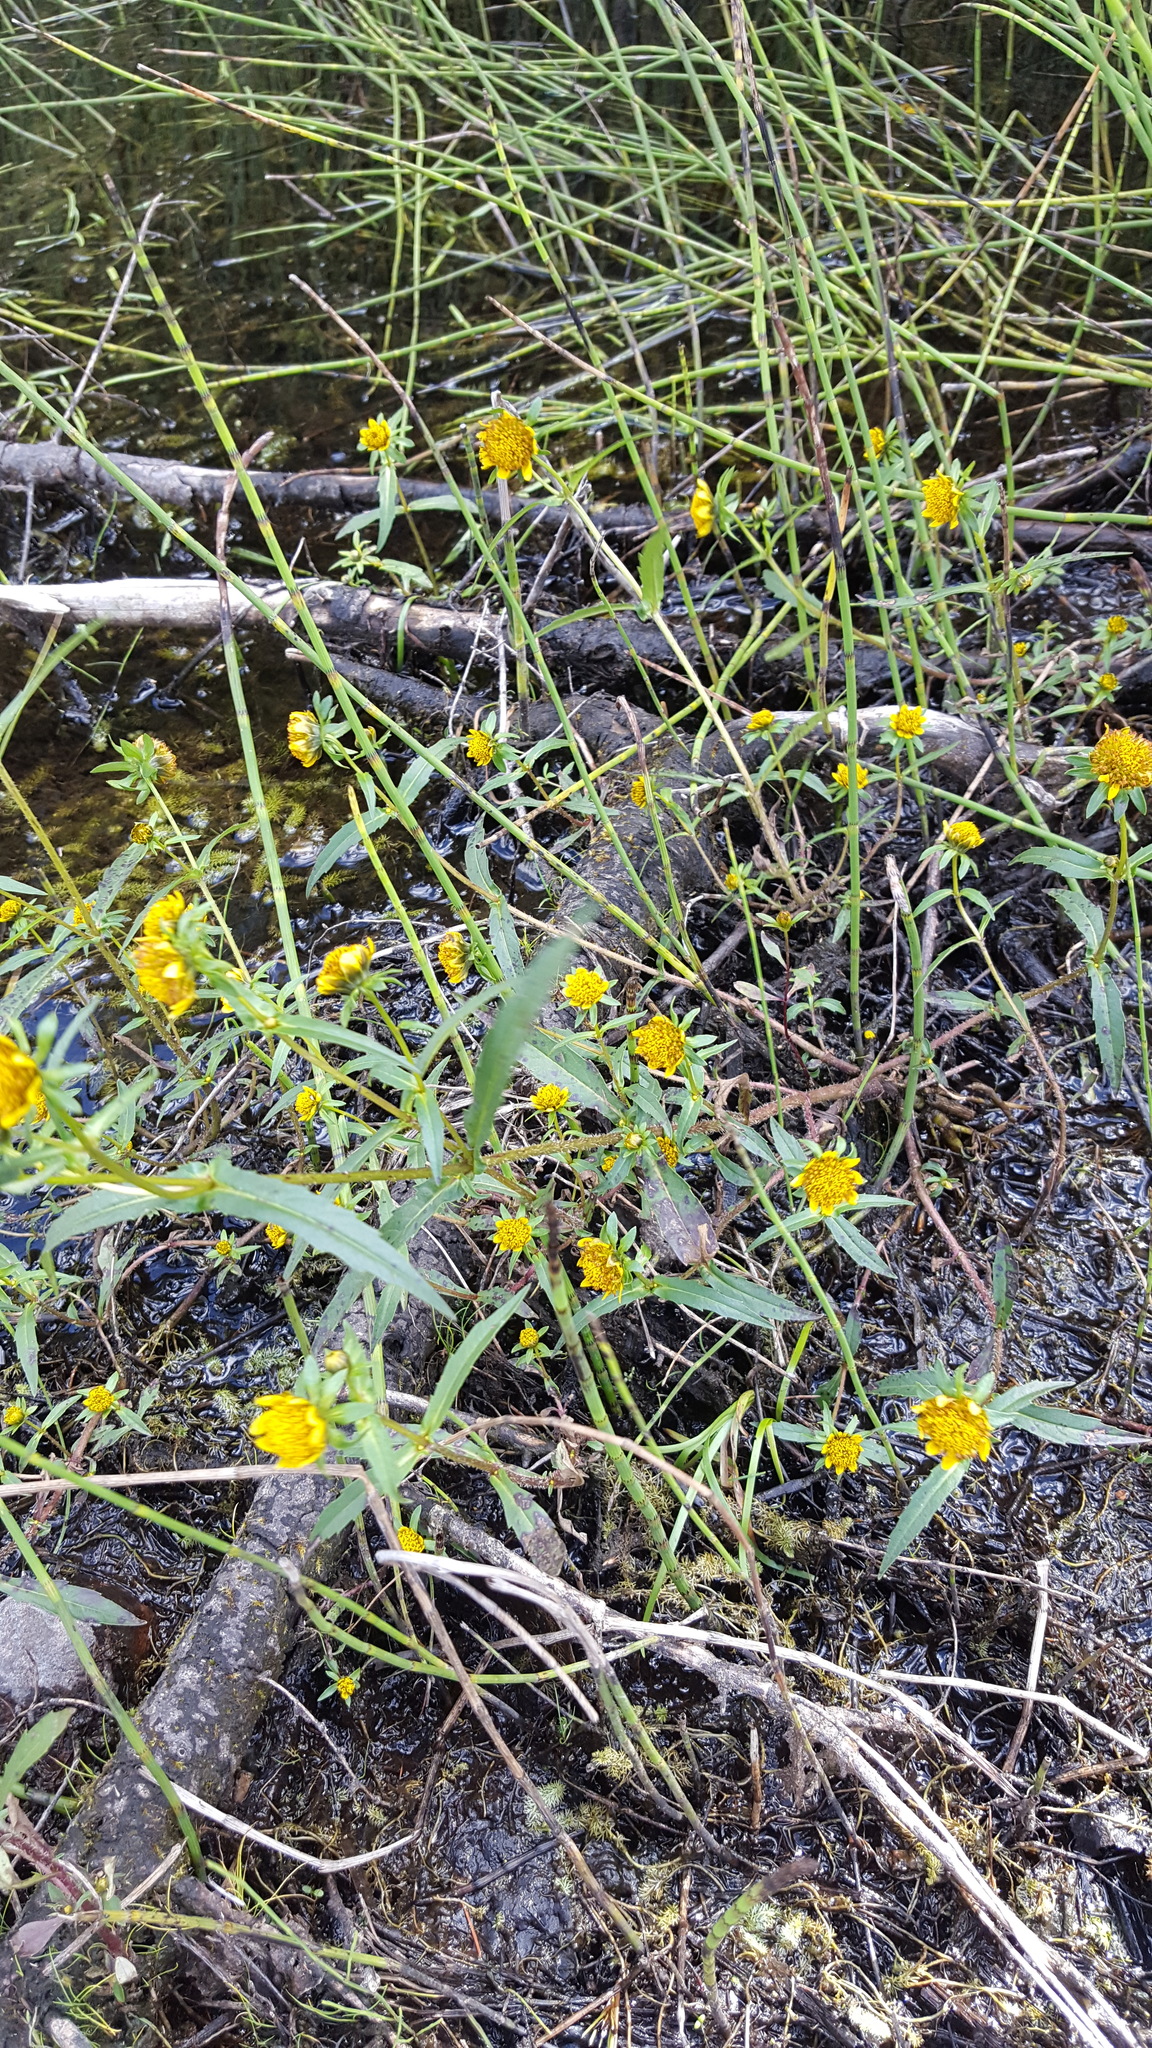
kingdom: Plantae
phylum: Tracheophyta
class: Magnoliopsida
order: Asterales
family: Asteraceae
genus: Bidens
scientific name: Bidens cernua
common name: Nodding bur-marigold
